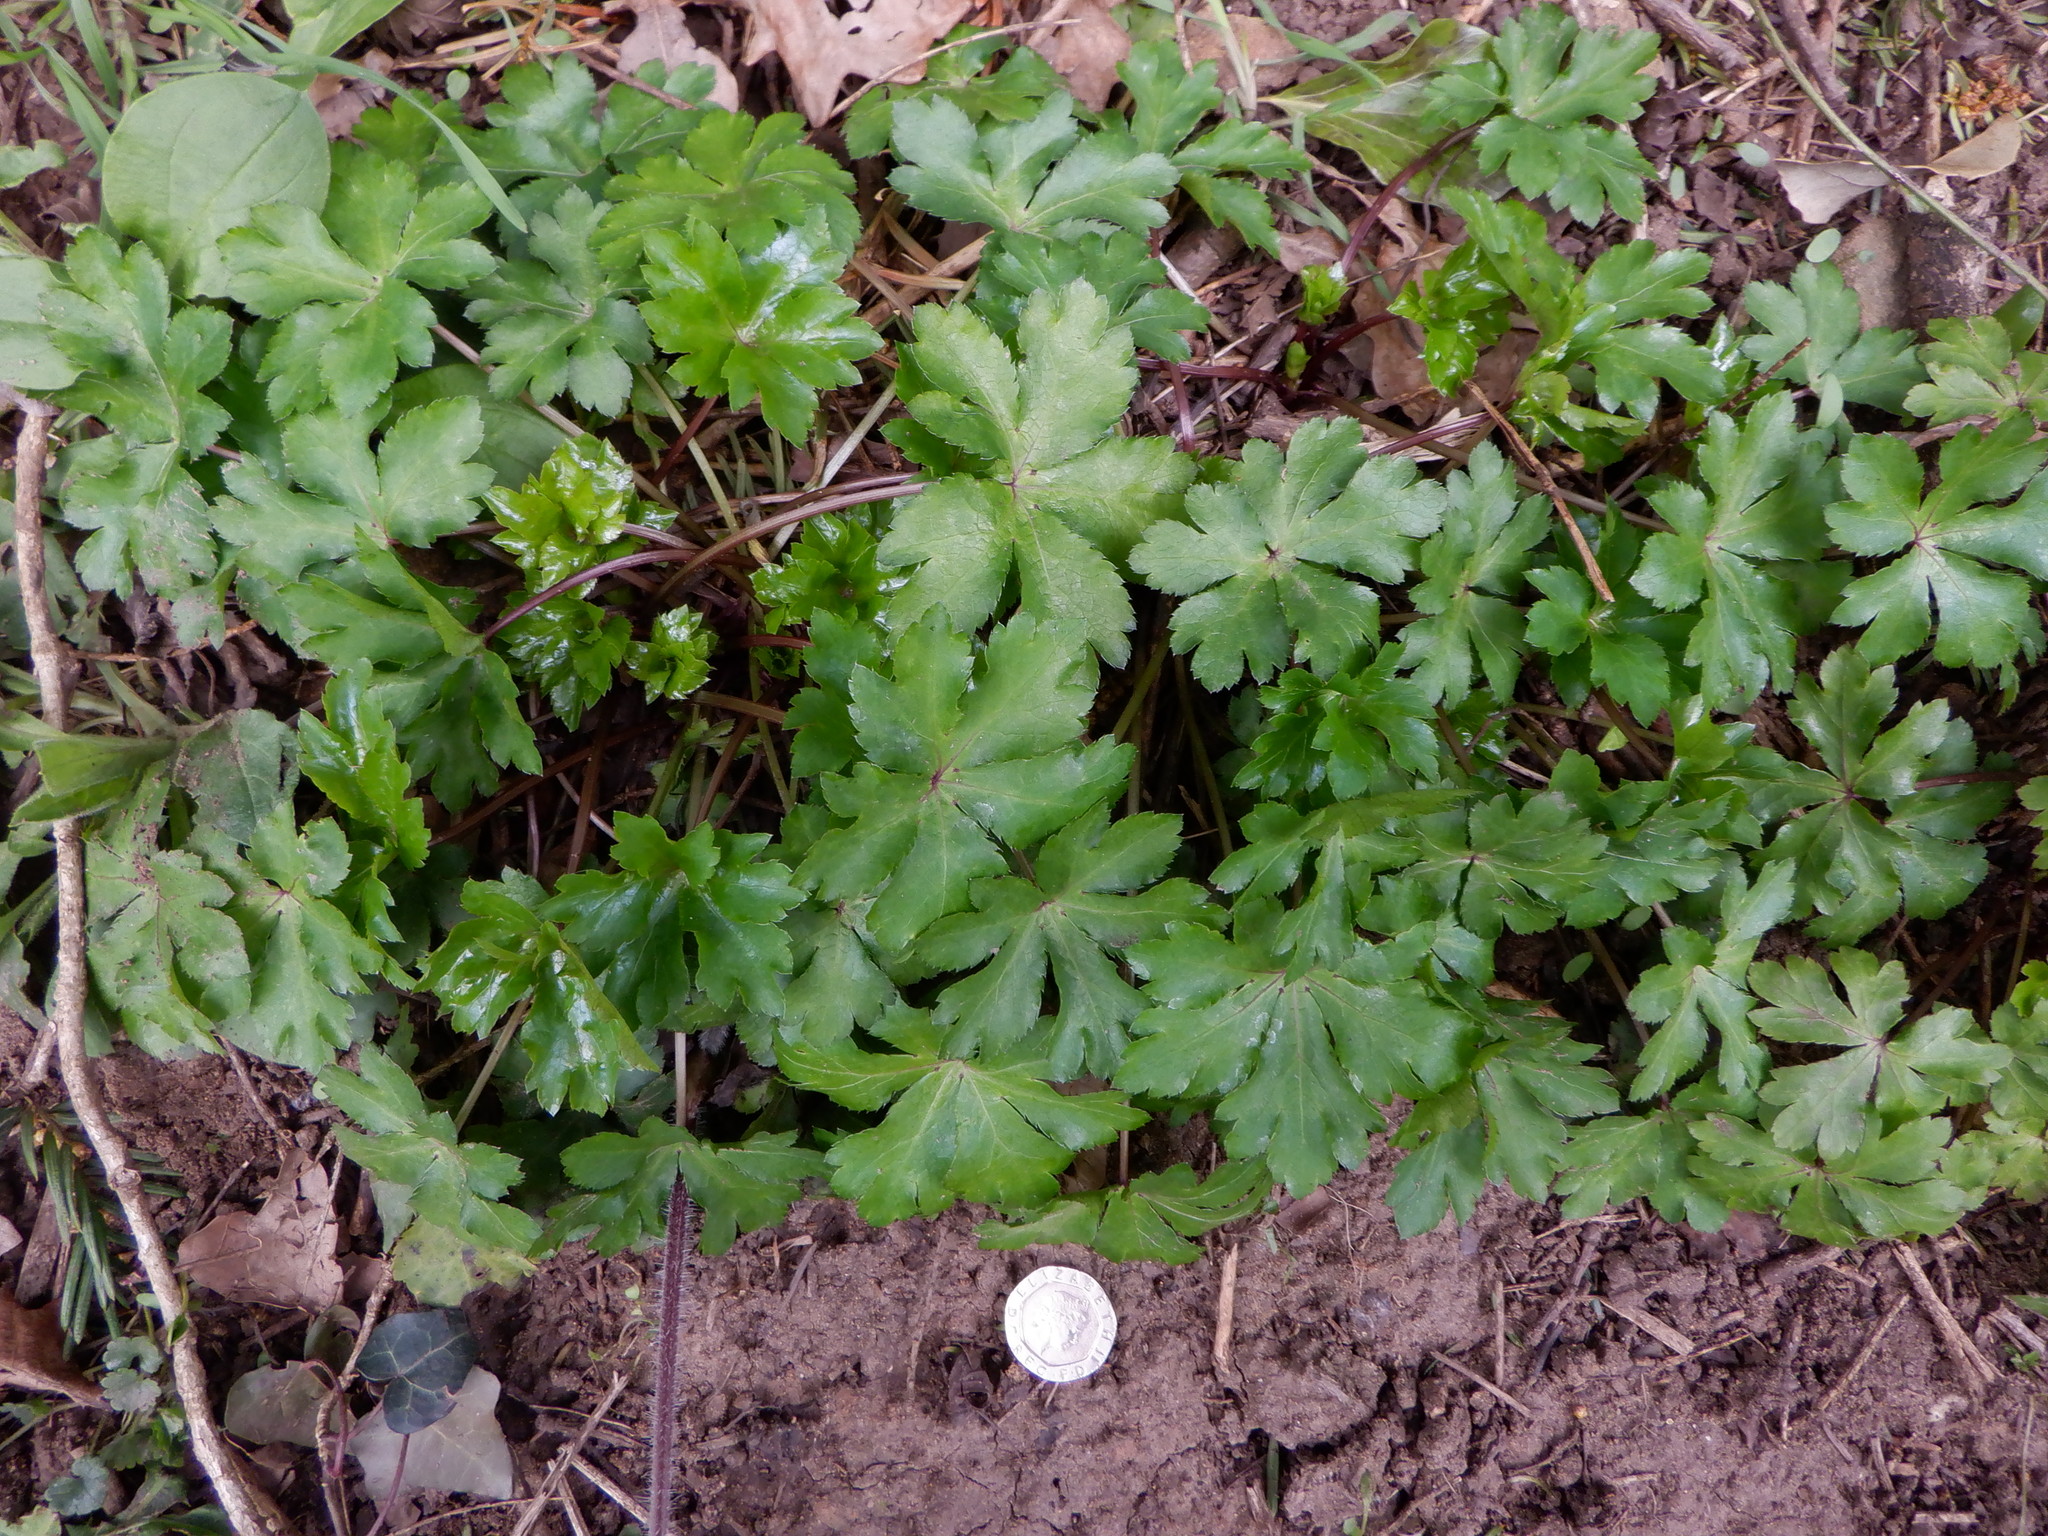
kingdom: Plantae
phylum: Tracheophyta
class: Magnoliopsida
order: Apiales
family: Apiaceae
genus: Sanicula
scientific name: Sanicula europaea
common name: Sanicle
